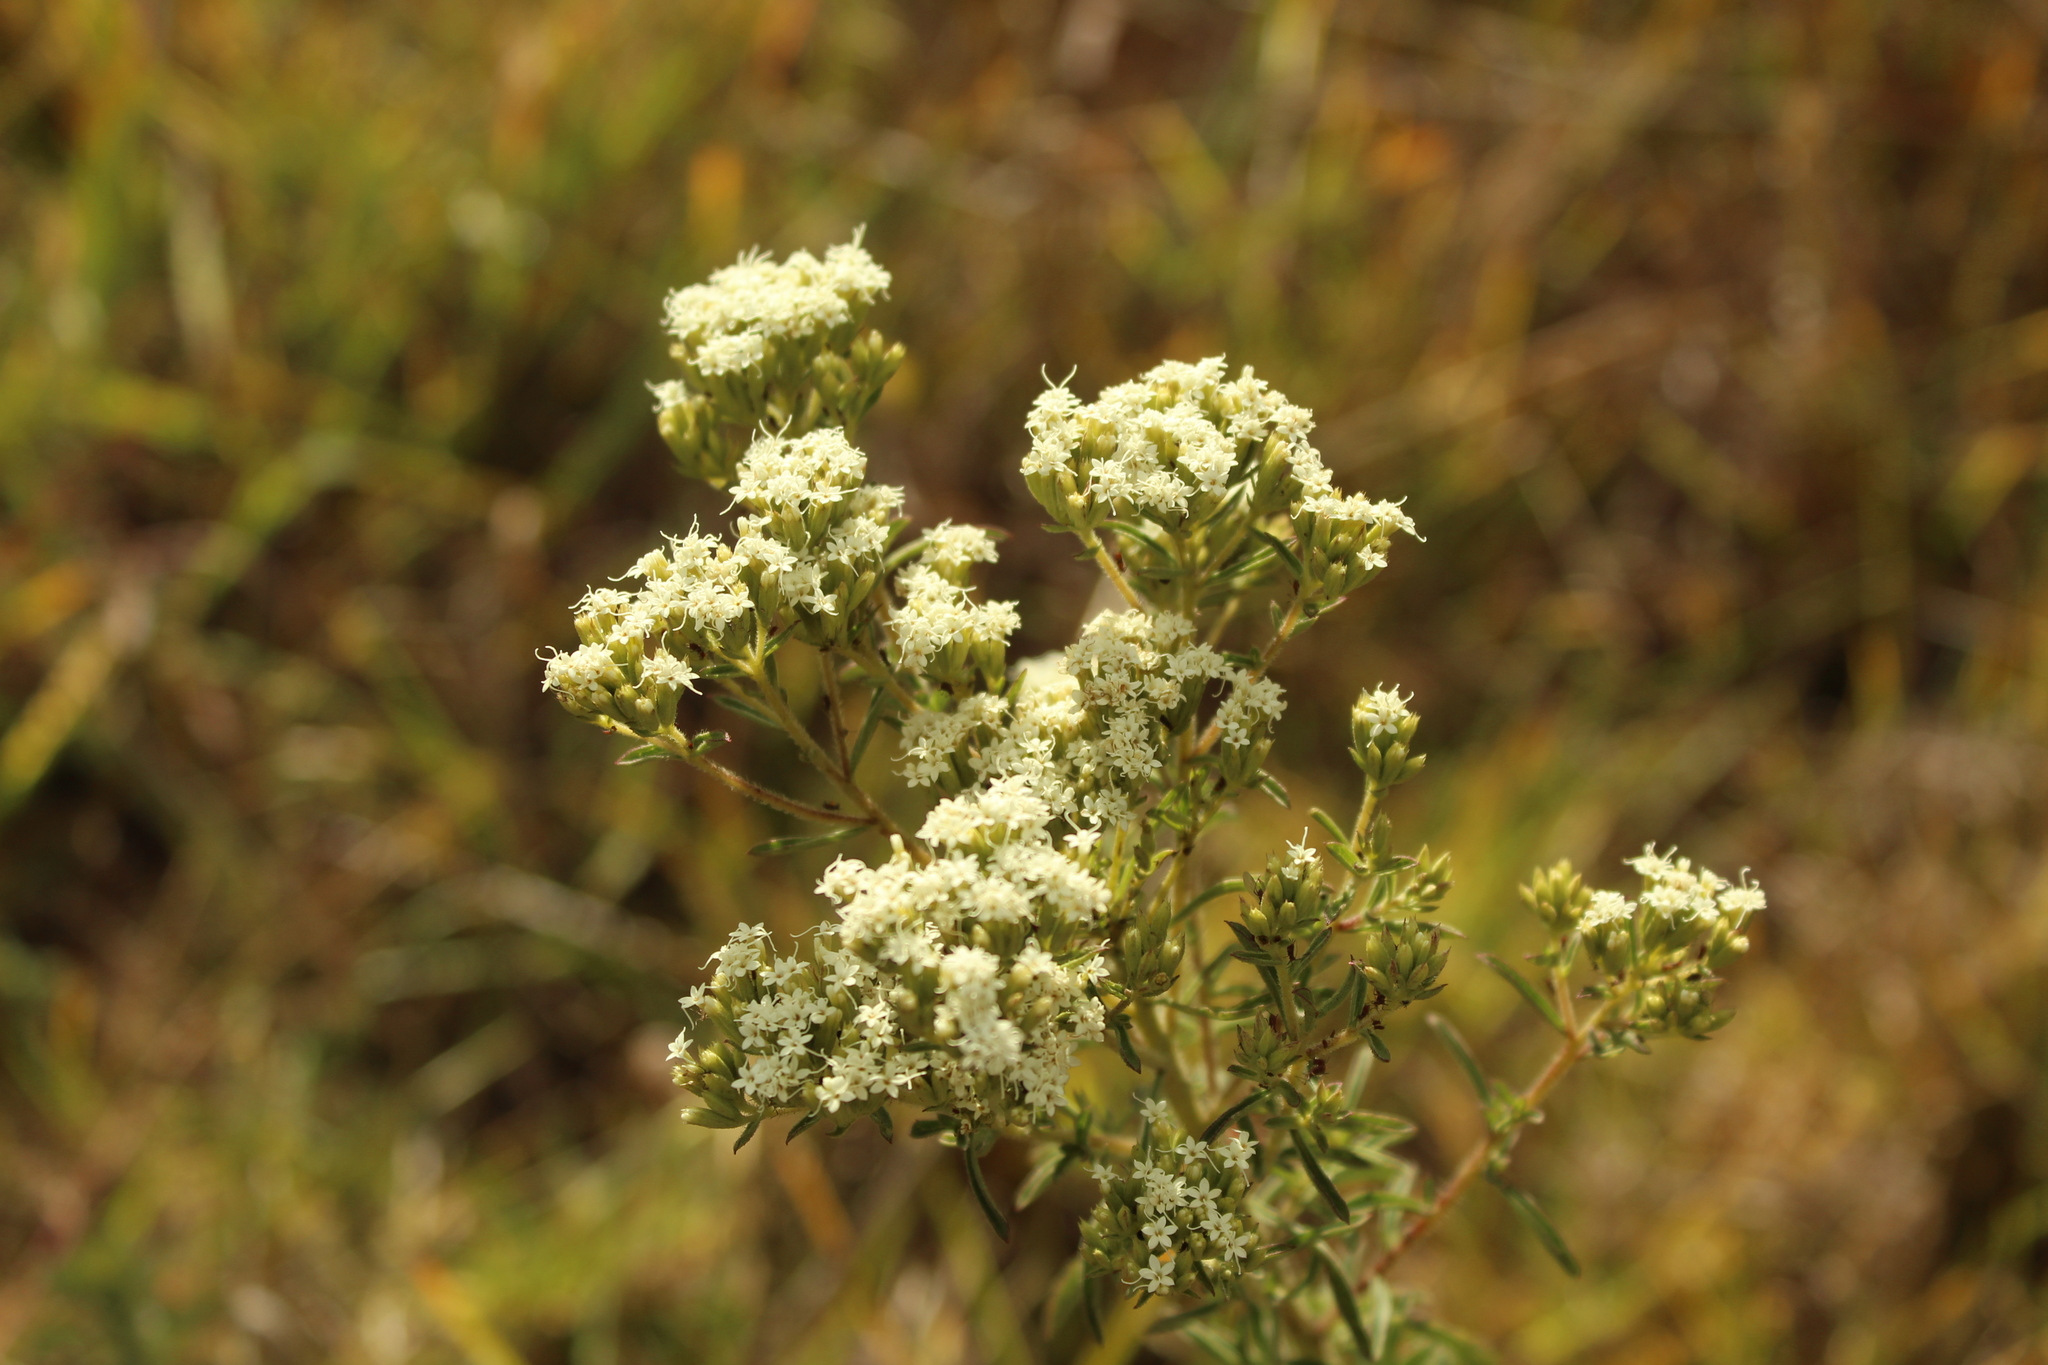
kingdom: Plantae
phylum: Tracheophyta
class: Magnoliopsida
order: Asterales
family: Asteraceae
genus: Stevia
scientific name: Stevia serrata
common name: Sawtooth candyleaf
